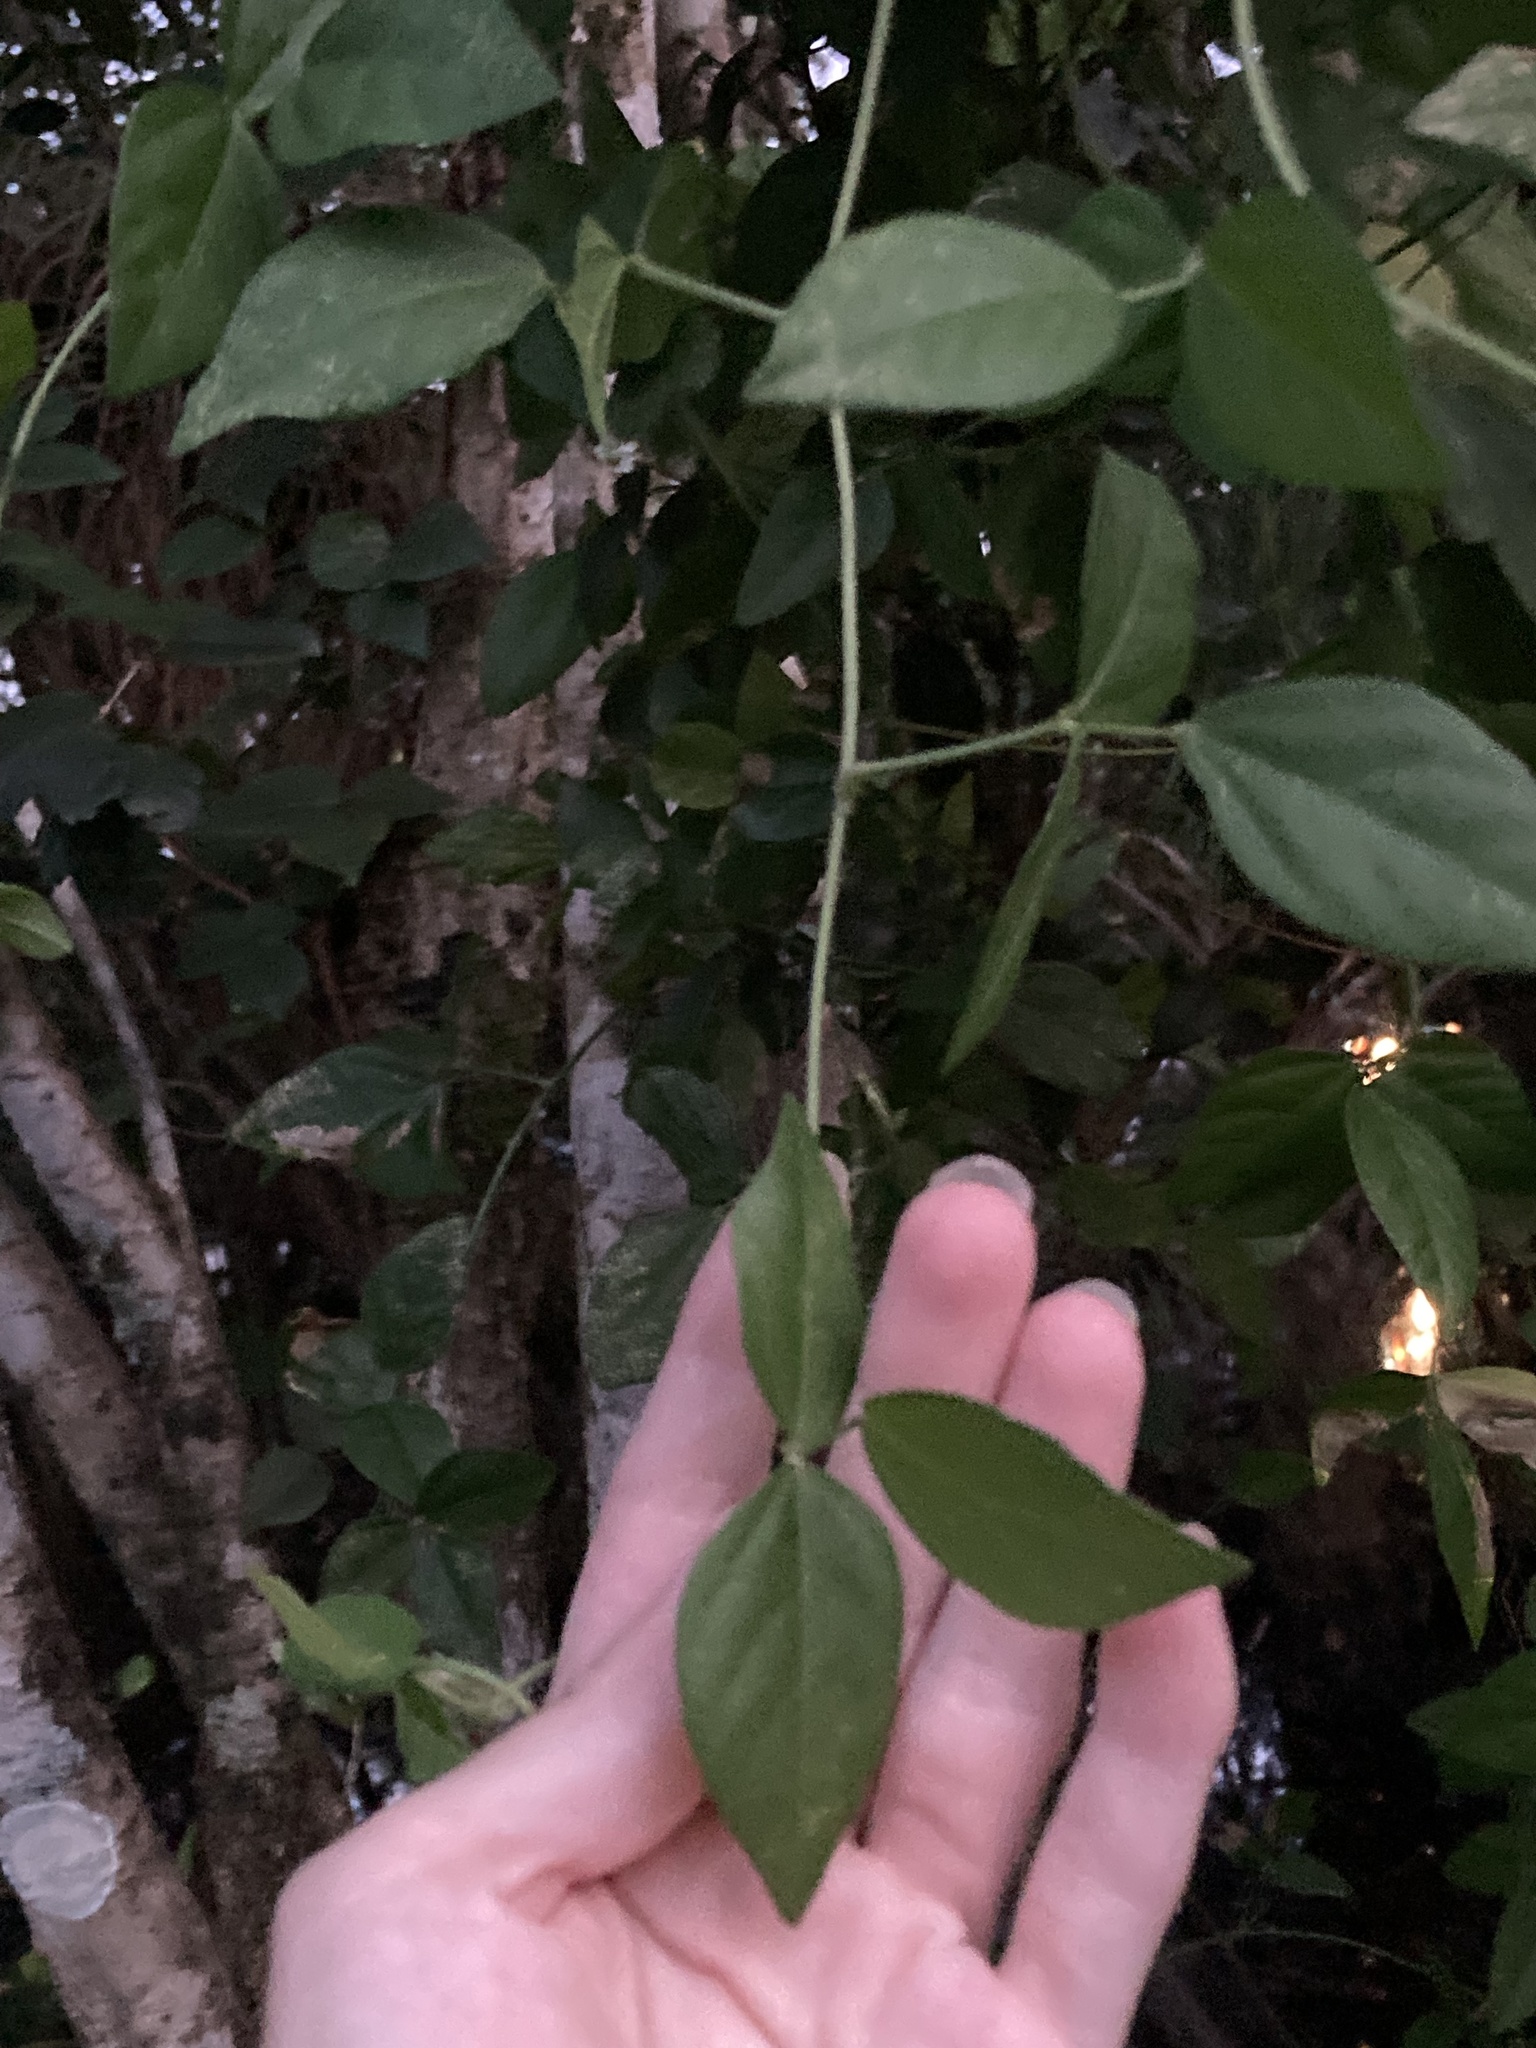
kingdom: Plantae
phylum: Tracheophyta
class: Magnoliopsida
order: Fabales
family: Fabaceae
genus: Vigna
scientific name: Vigna luteola
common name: Hairypod cowpea
